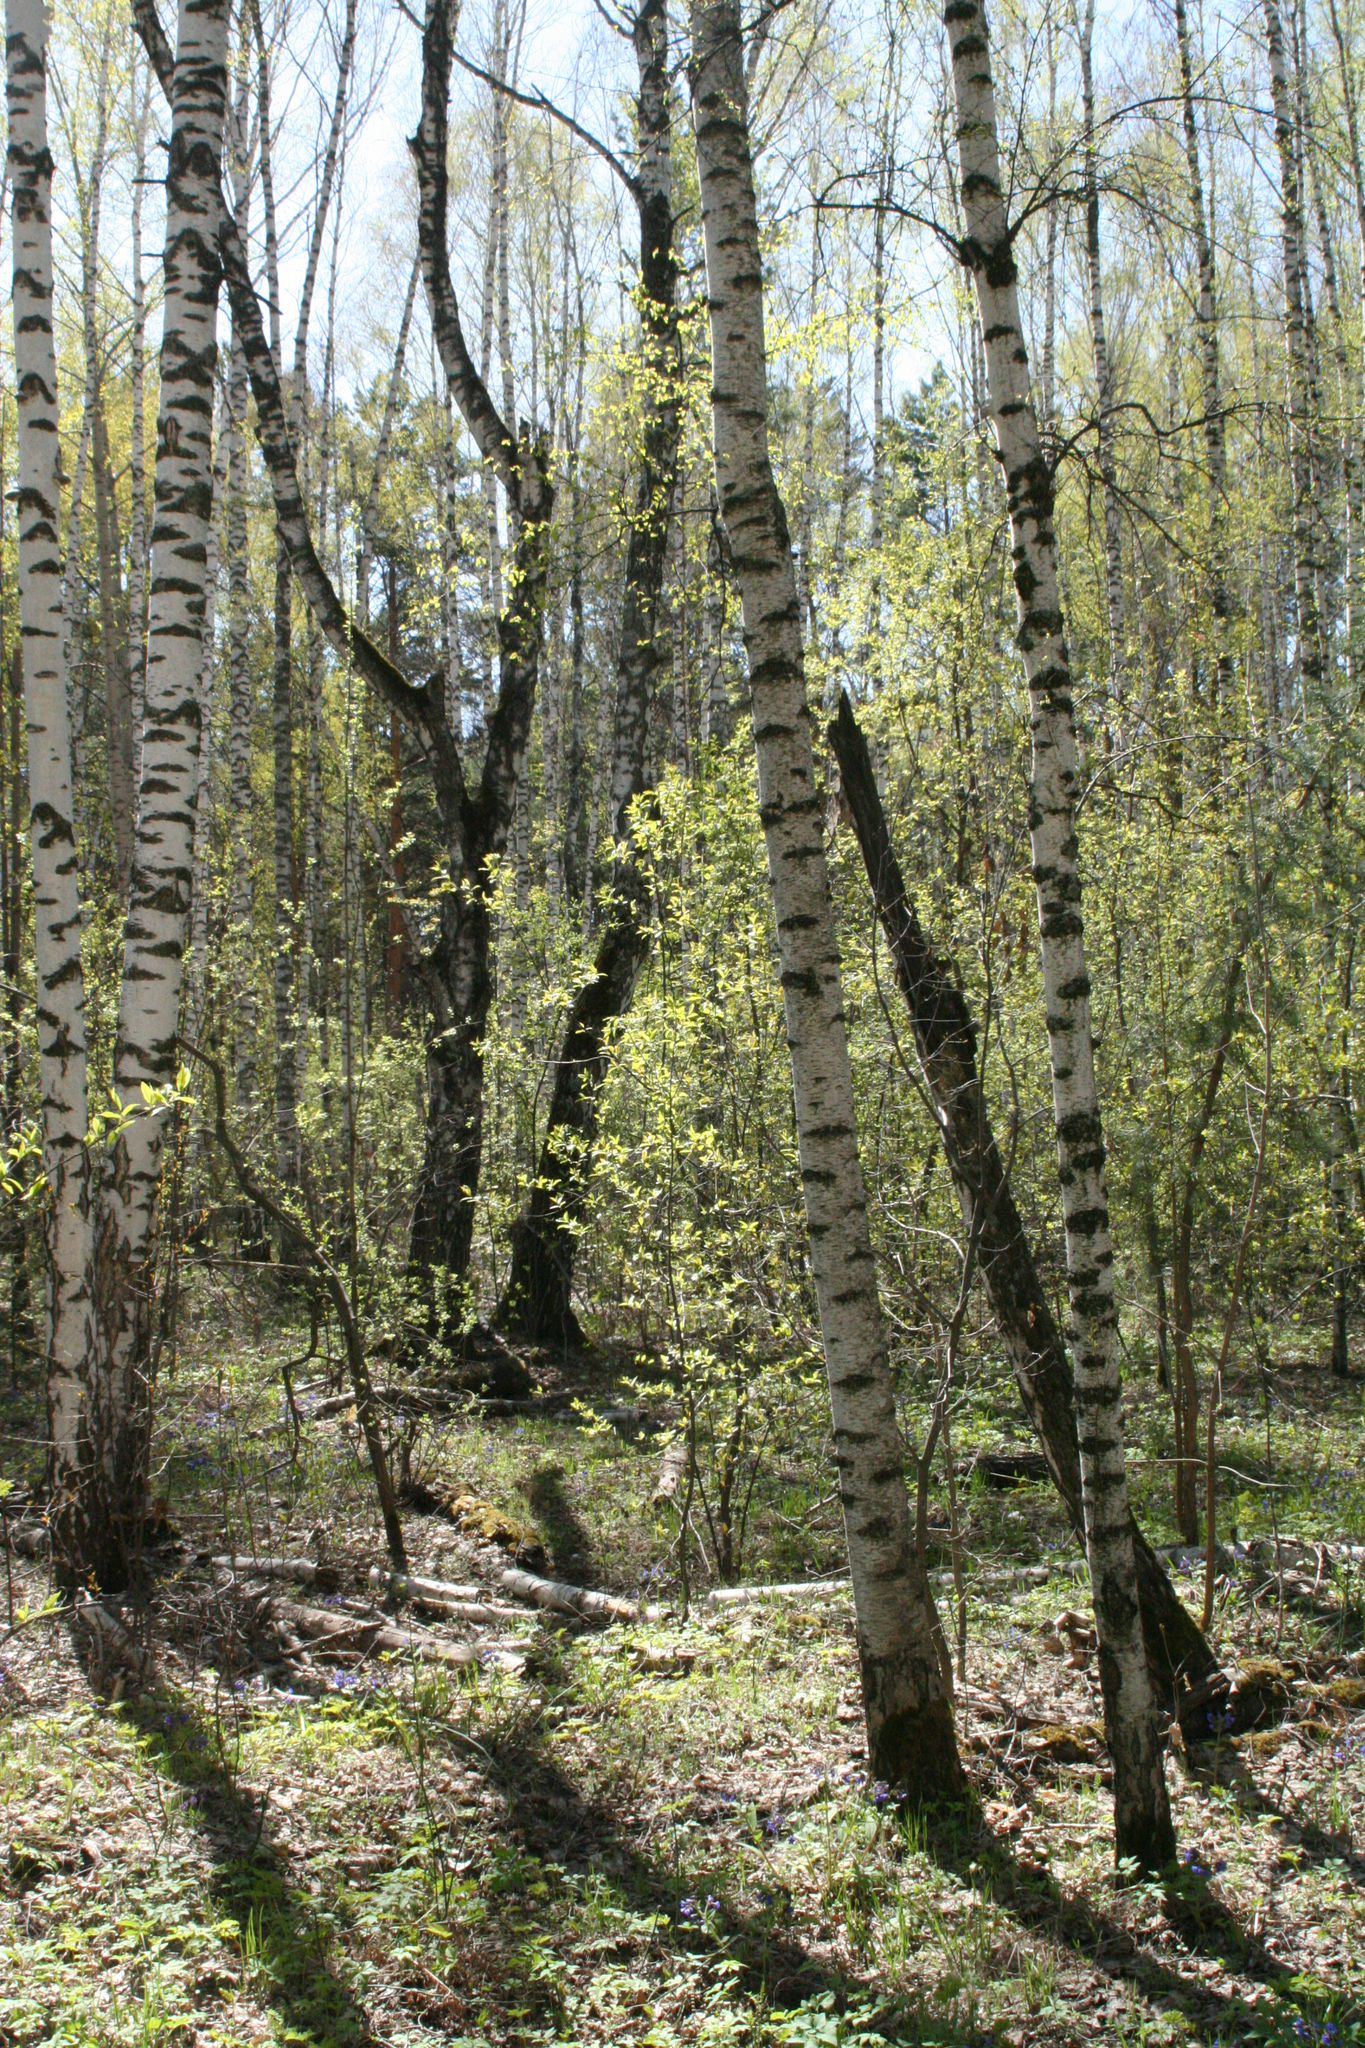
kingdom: Plantae
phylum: Tracheophyta
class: Magnoliopsida
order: Fagales
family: Betulaceae
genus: Betula
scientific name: Betula pendula
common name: Silver birch
